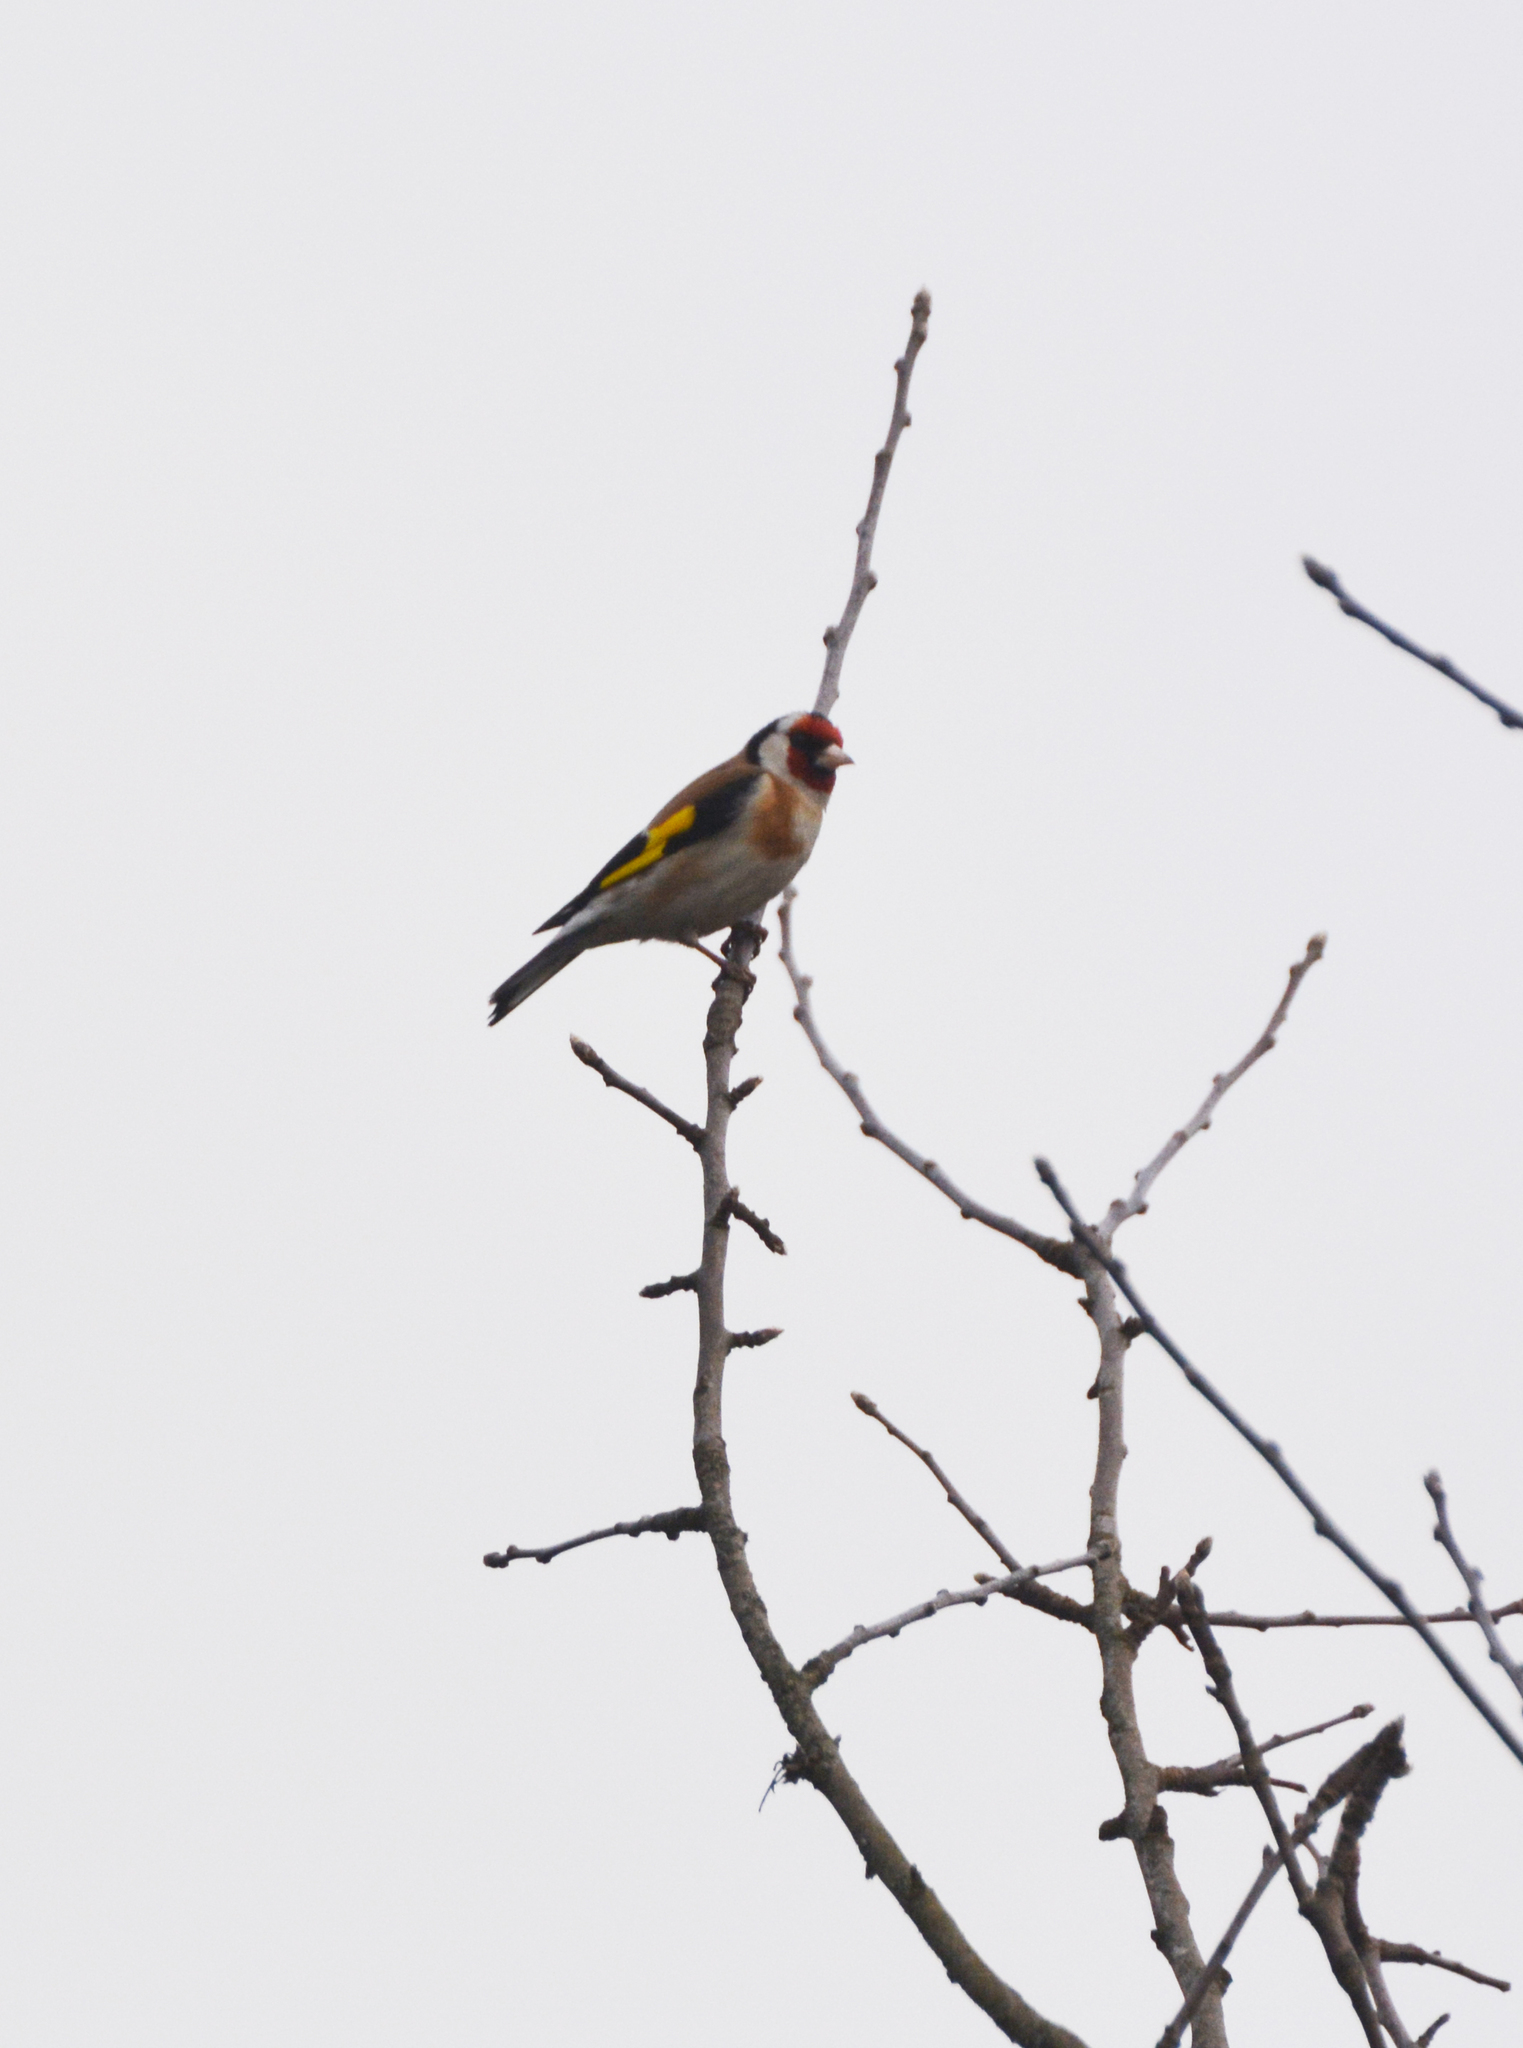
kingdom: Animalia
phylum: Chordata
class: Aves
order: Passeriformes
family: Fringillidae
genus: Carduelis
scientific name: Carduelis carduelis
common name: European goldfinch
